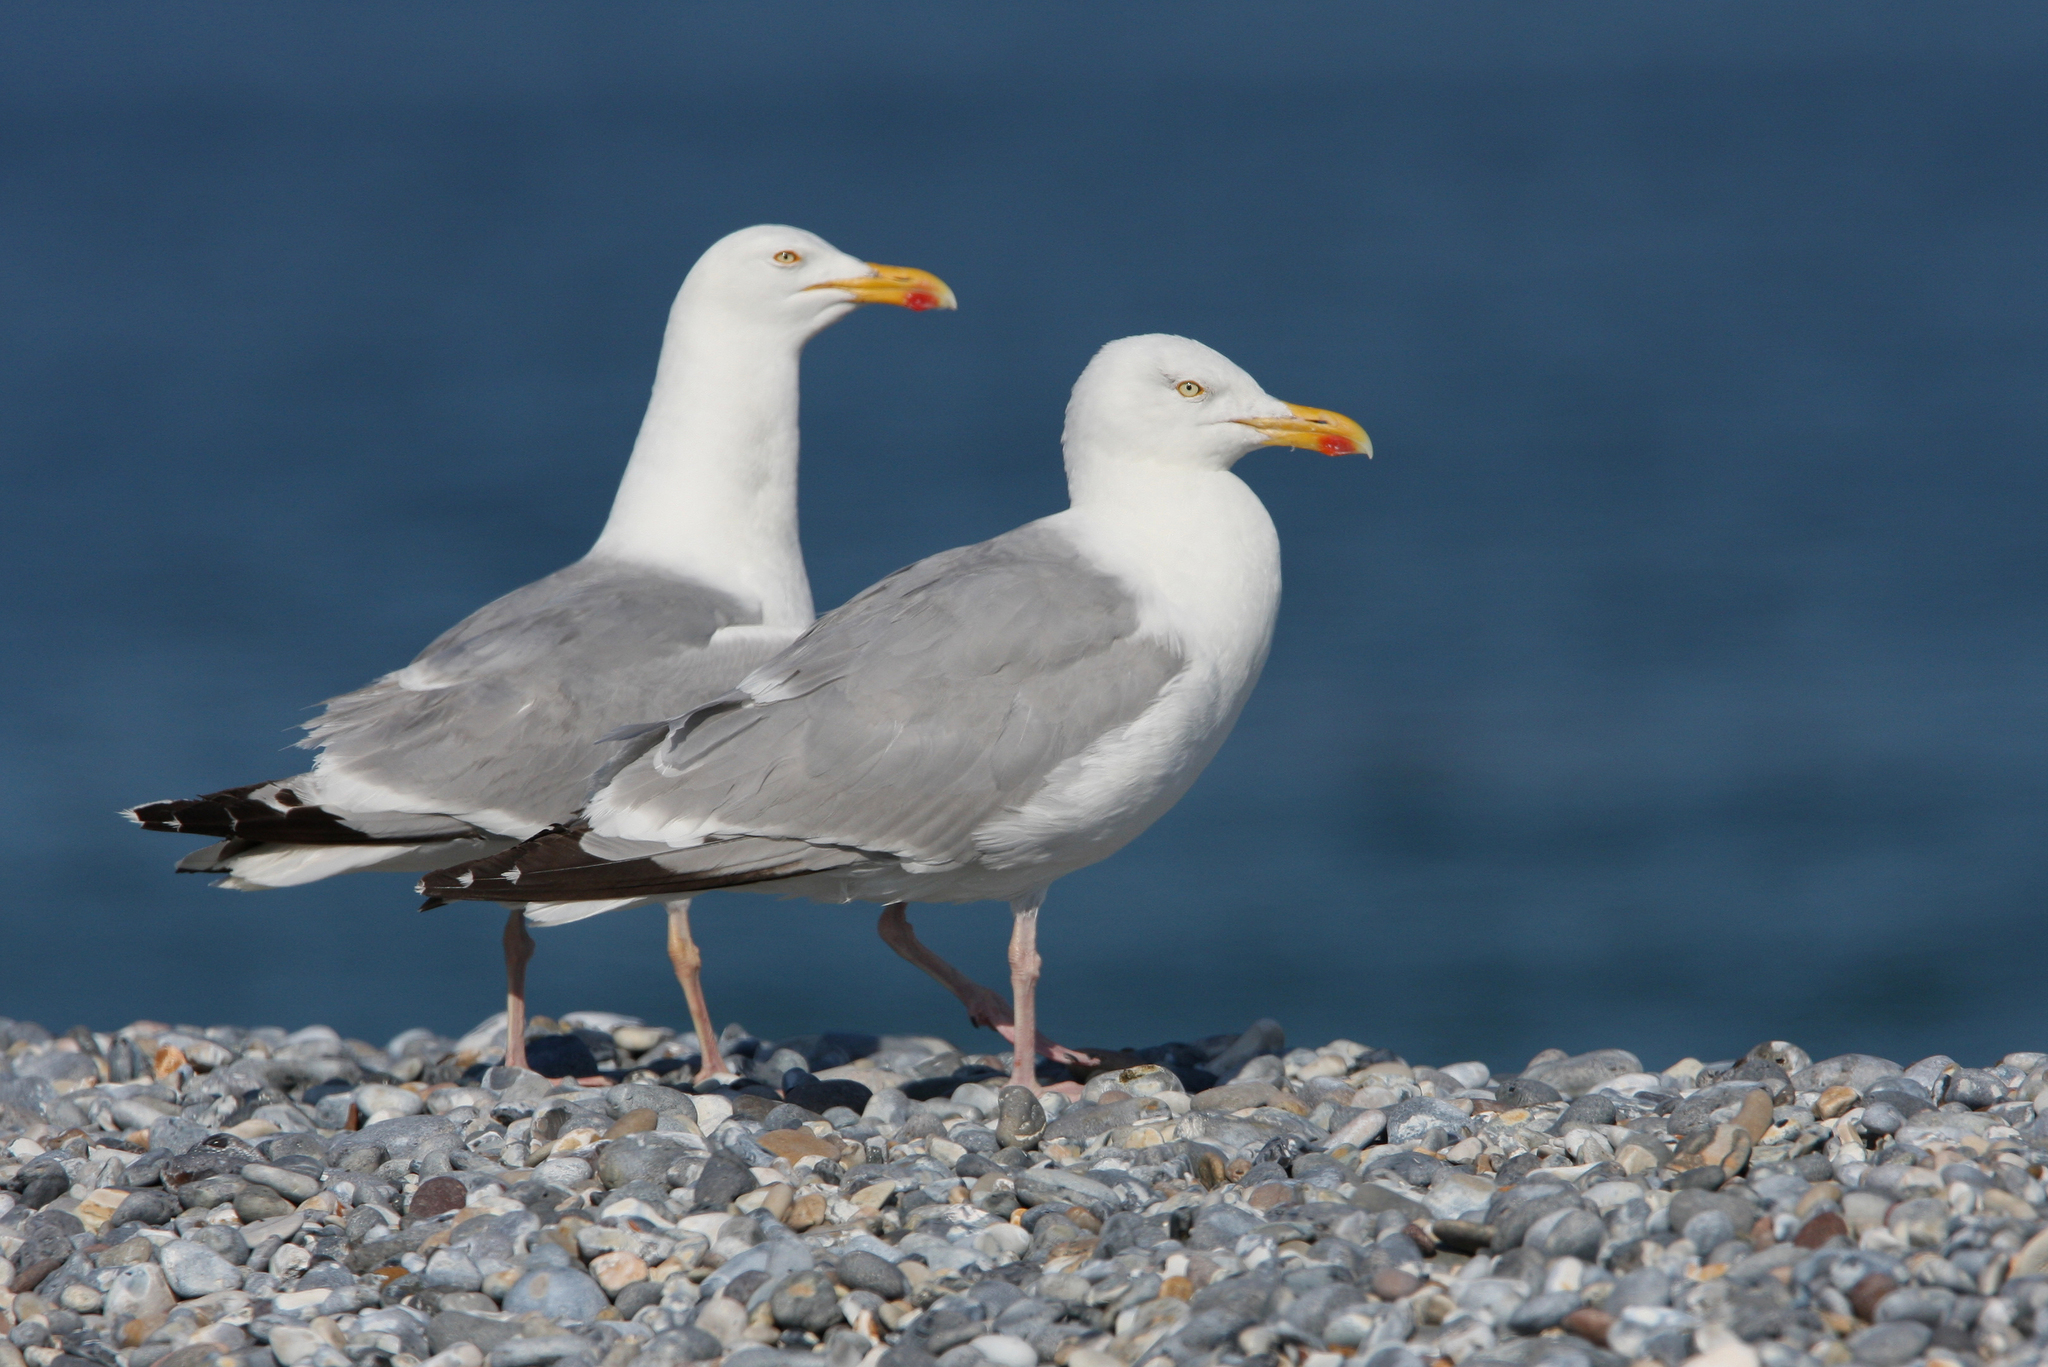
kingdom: Animalia
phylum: Chordata
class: Aves
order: Charadriiformes
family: Laridae
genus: Larus
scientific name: Larus argentatus
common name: Herring gull
